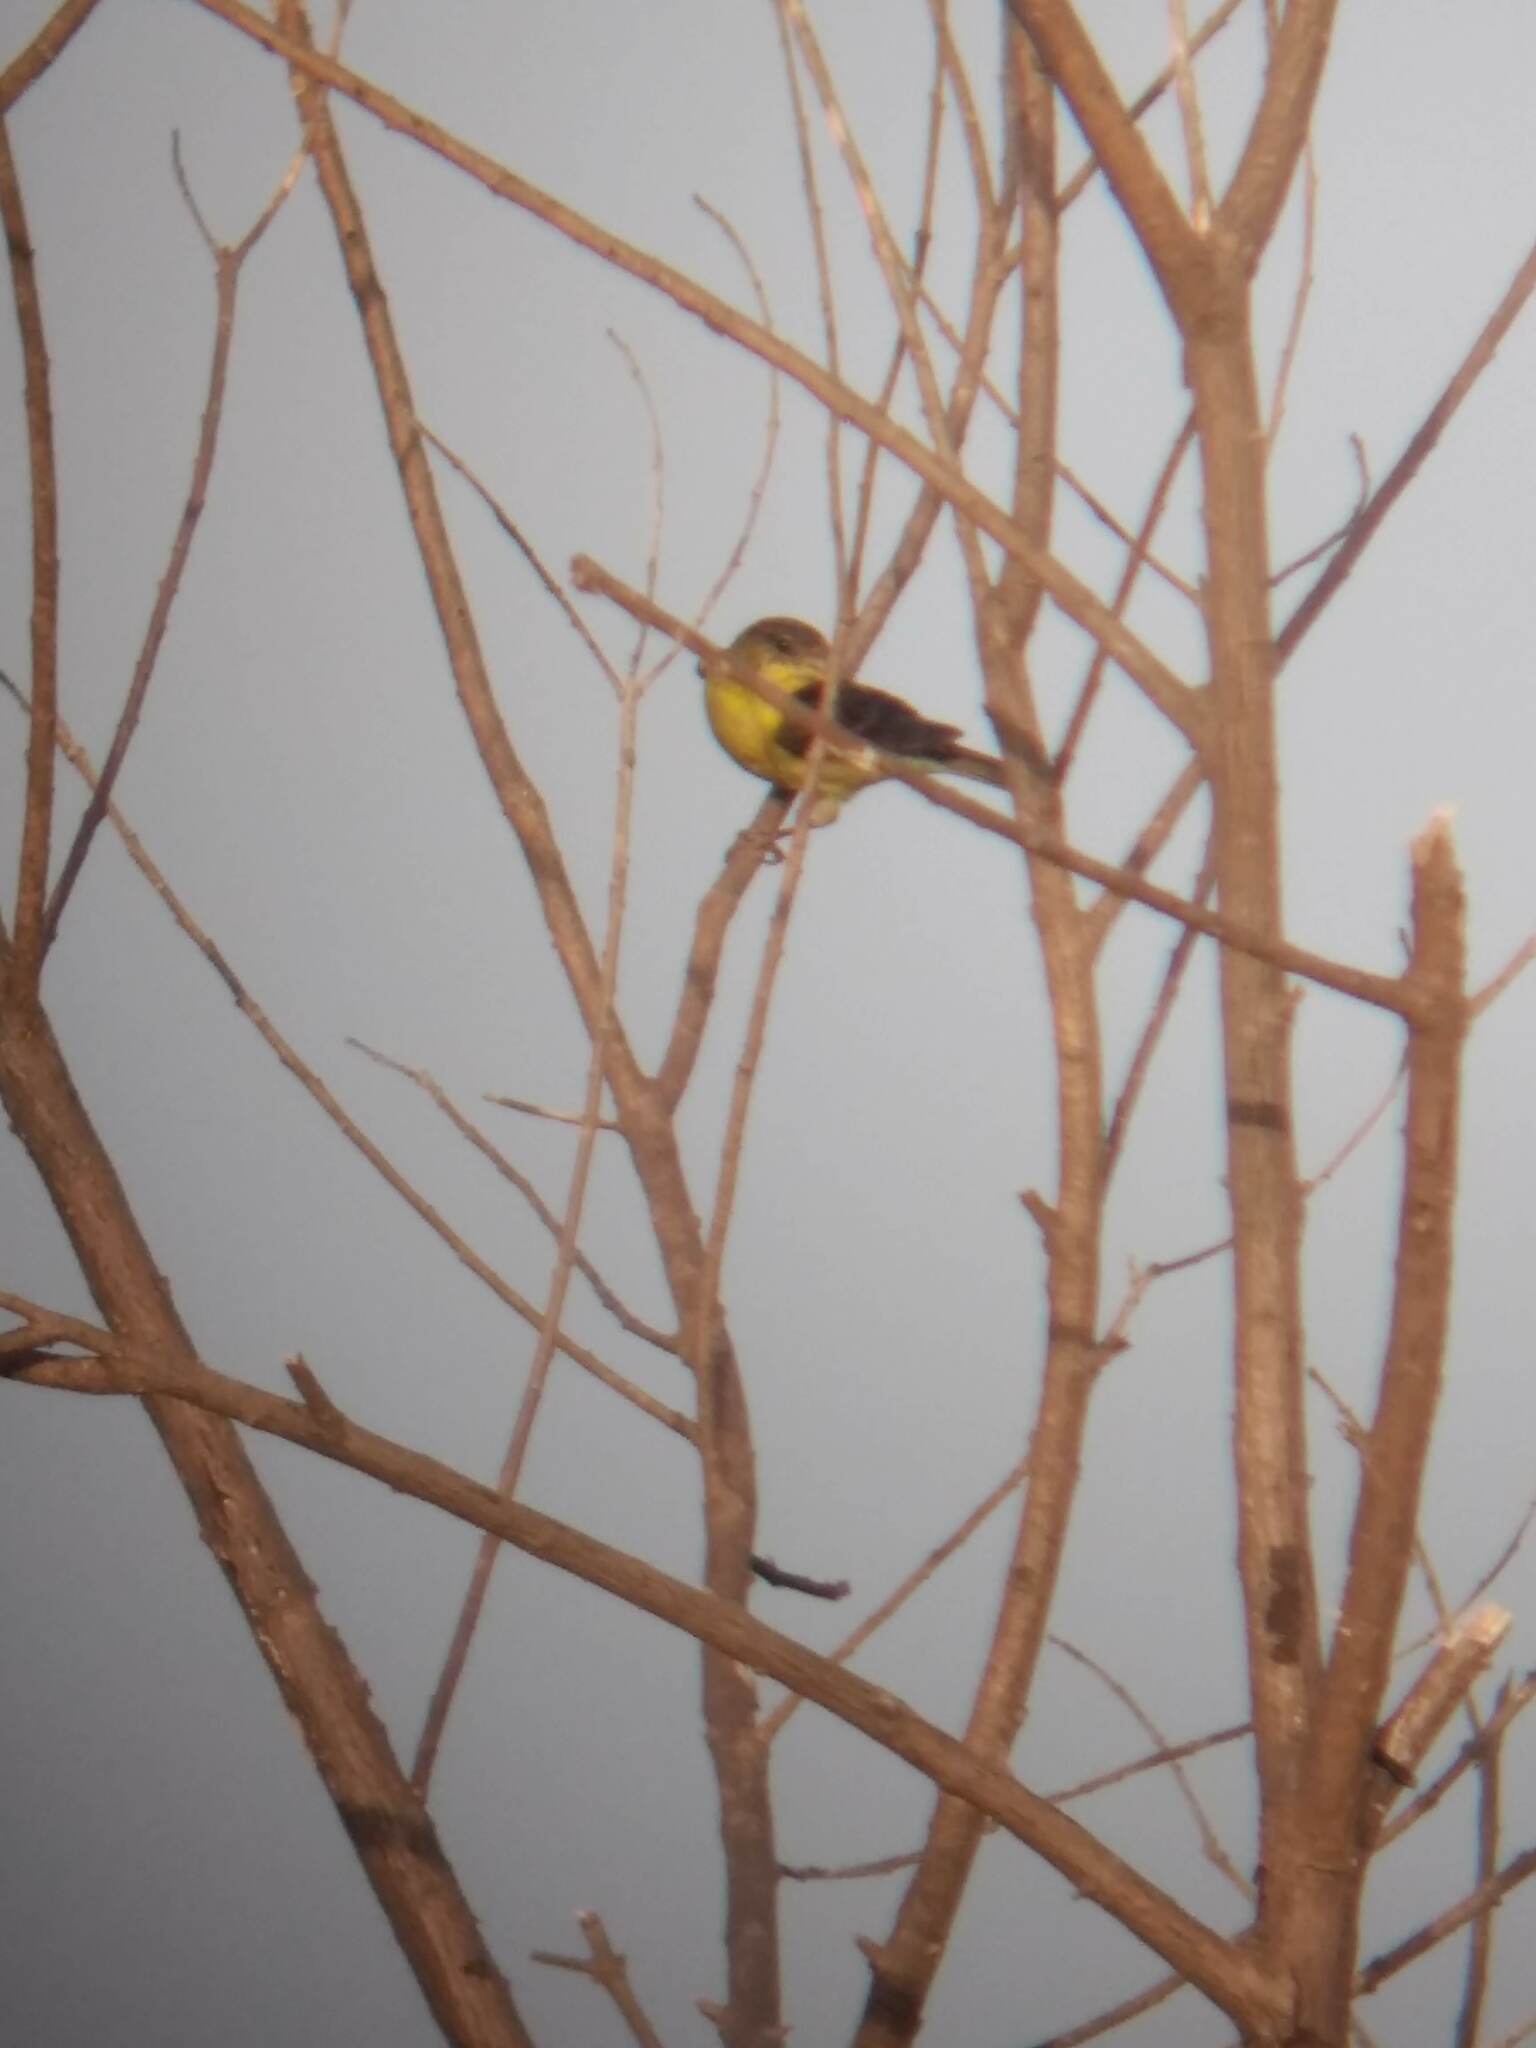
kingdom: Animalia
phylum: Chordata
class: Aves
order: Passeriformes
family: Fringillidae
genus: Spinus
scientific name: Spinus psaltria
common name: Lesser goldfinch
